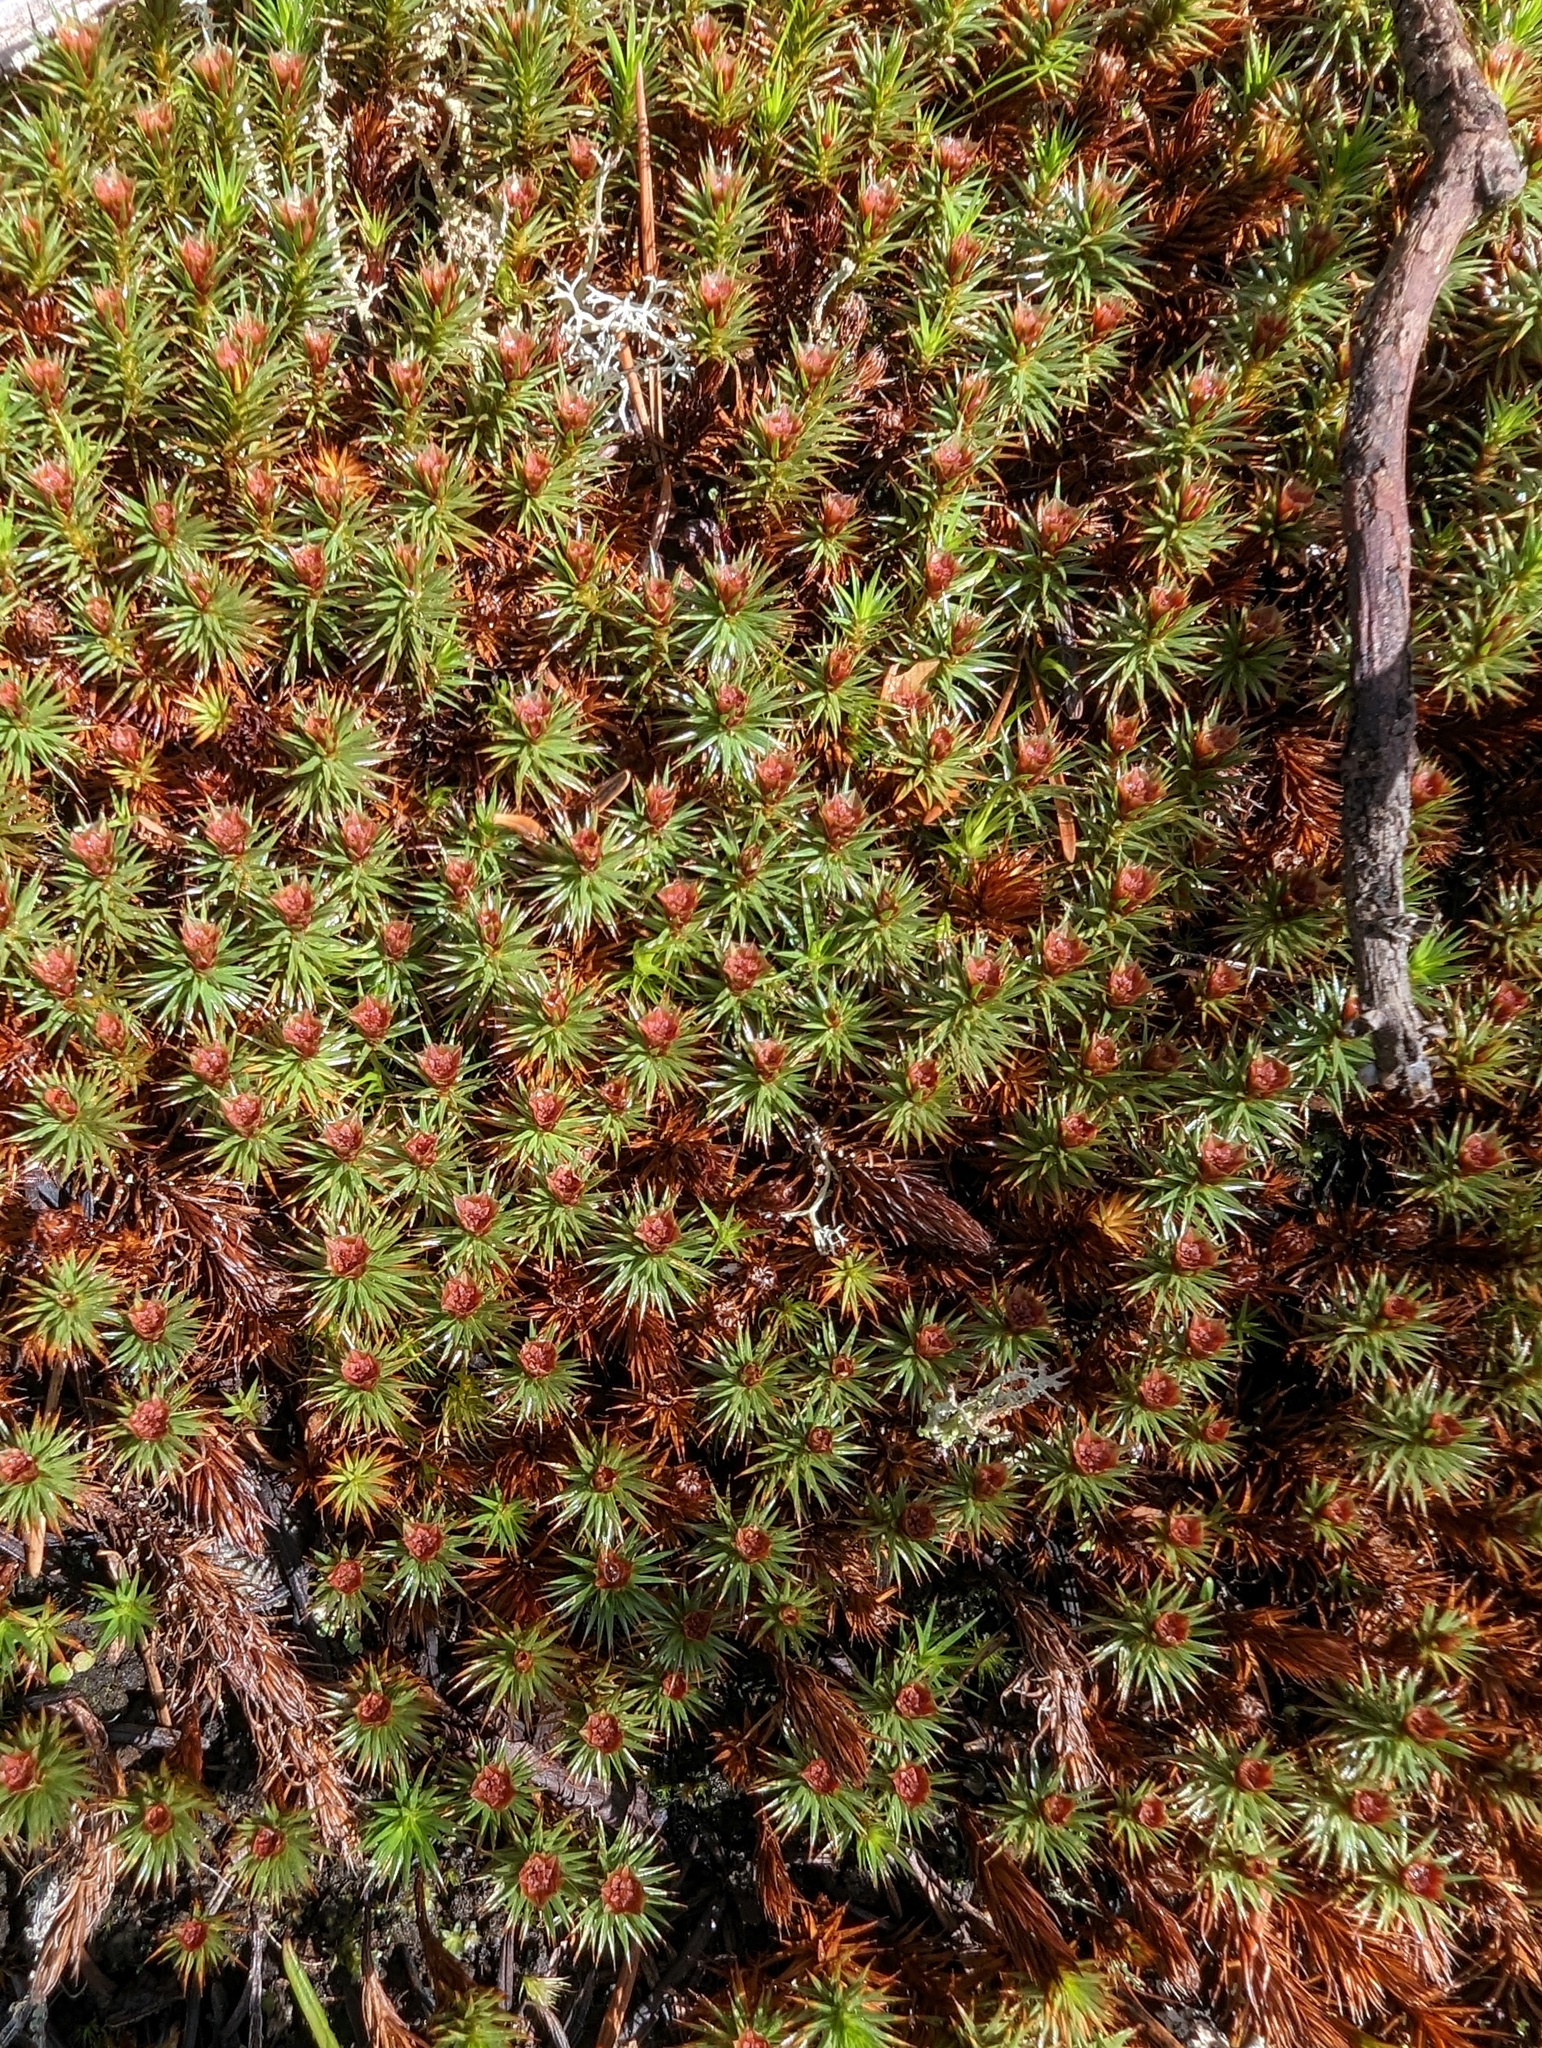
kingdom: Plantae
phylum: Bryophyta
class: Polytrichopsida
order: Polytrichales
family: Polytrichaceae
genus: Polytrichum
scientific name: Polytrichum juniperinum
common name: Juniper haircap moss
